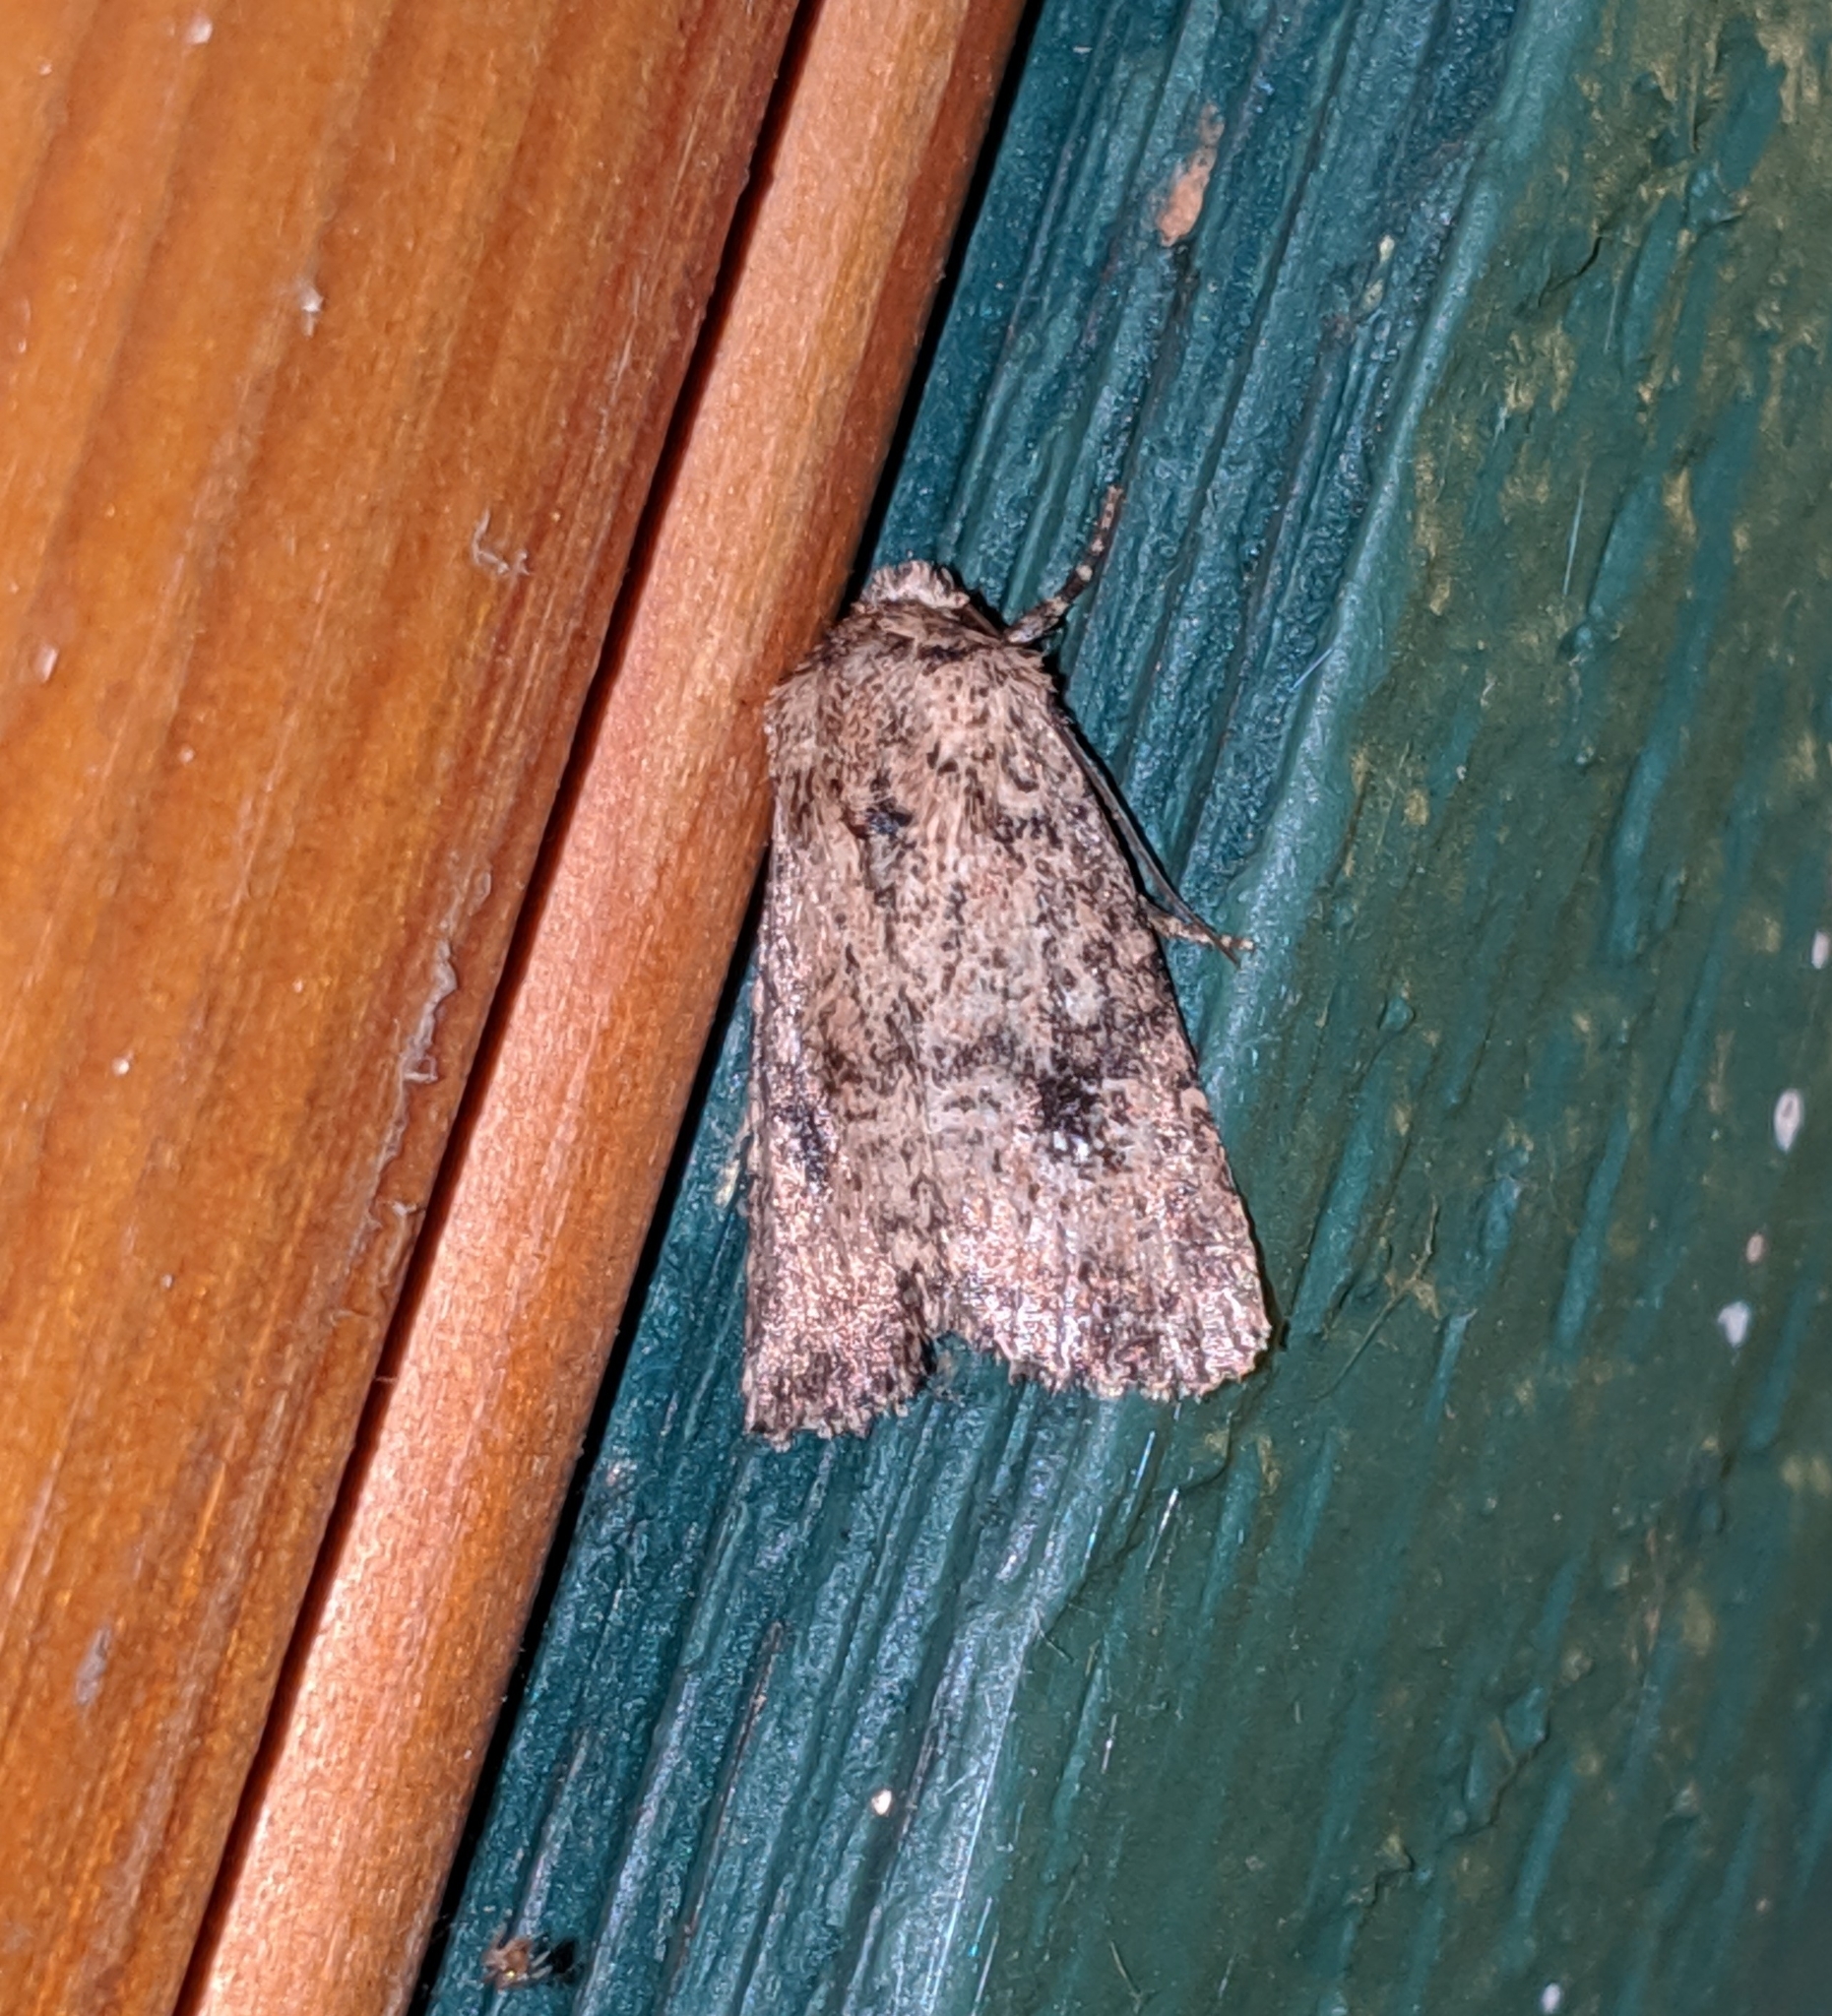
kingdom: Animalia
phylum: Arthropoda
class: Insecta
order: Lepidoptera
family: Noctuidae
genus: Homorthodes
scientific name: Homorthodes hanhami
